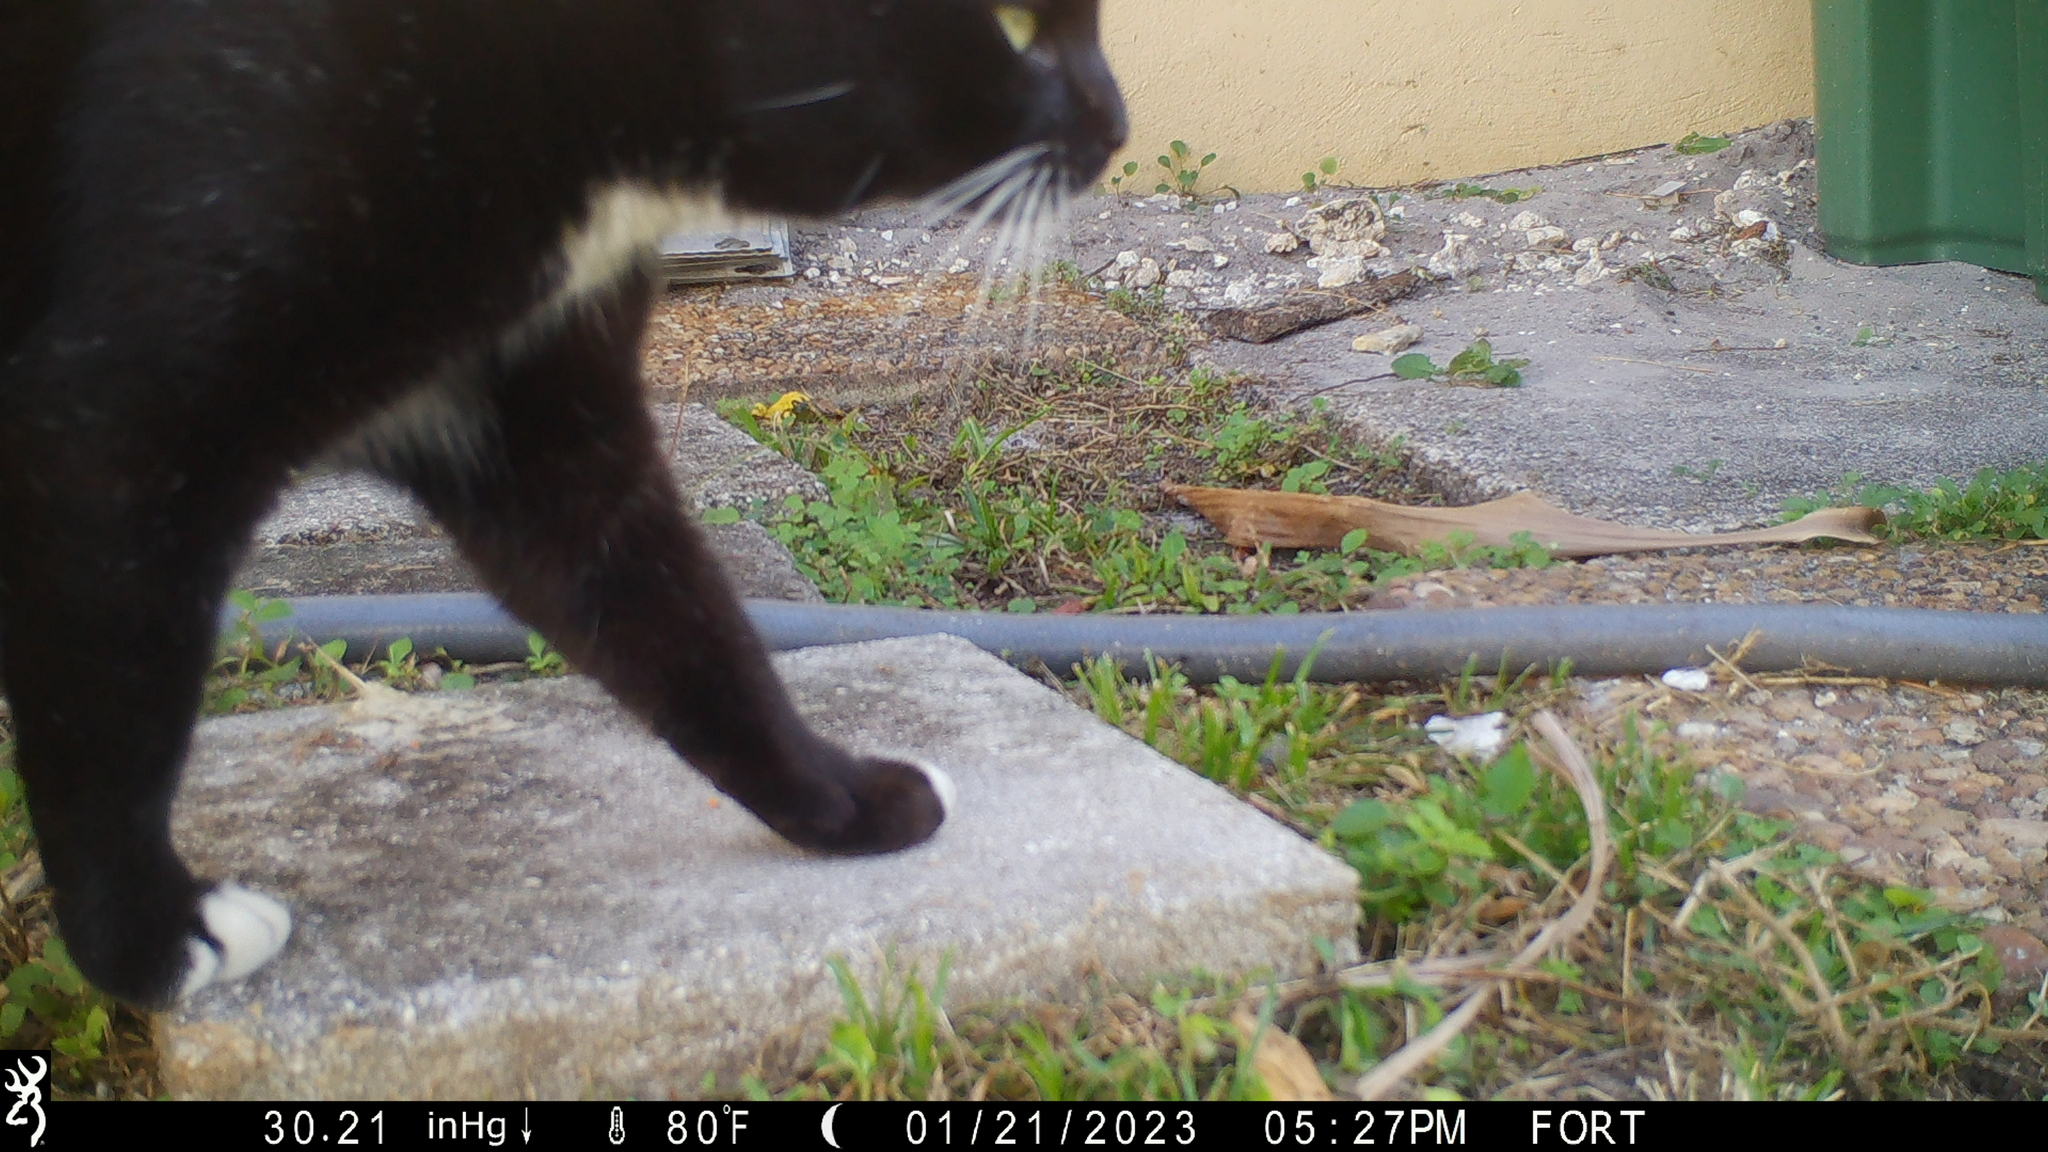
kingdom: Animalia
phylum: Chordata
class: Mammalia
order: Carnivora
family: Felidae
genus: Felis
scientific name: Felis catus
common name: Domestic cat
